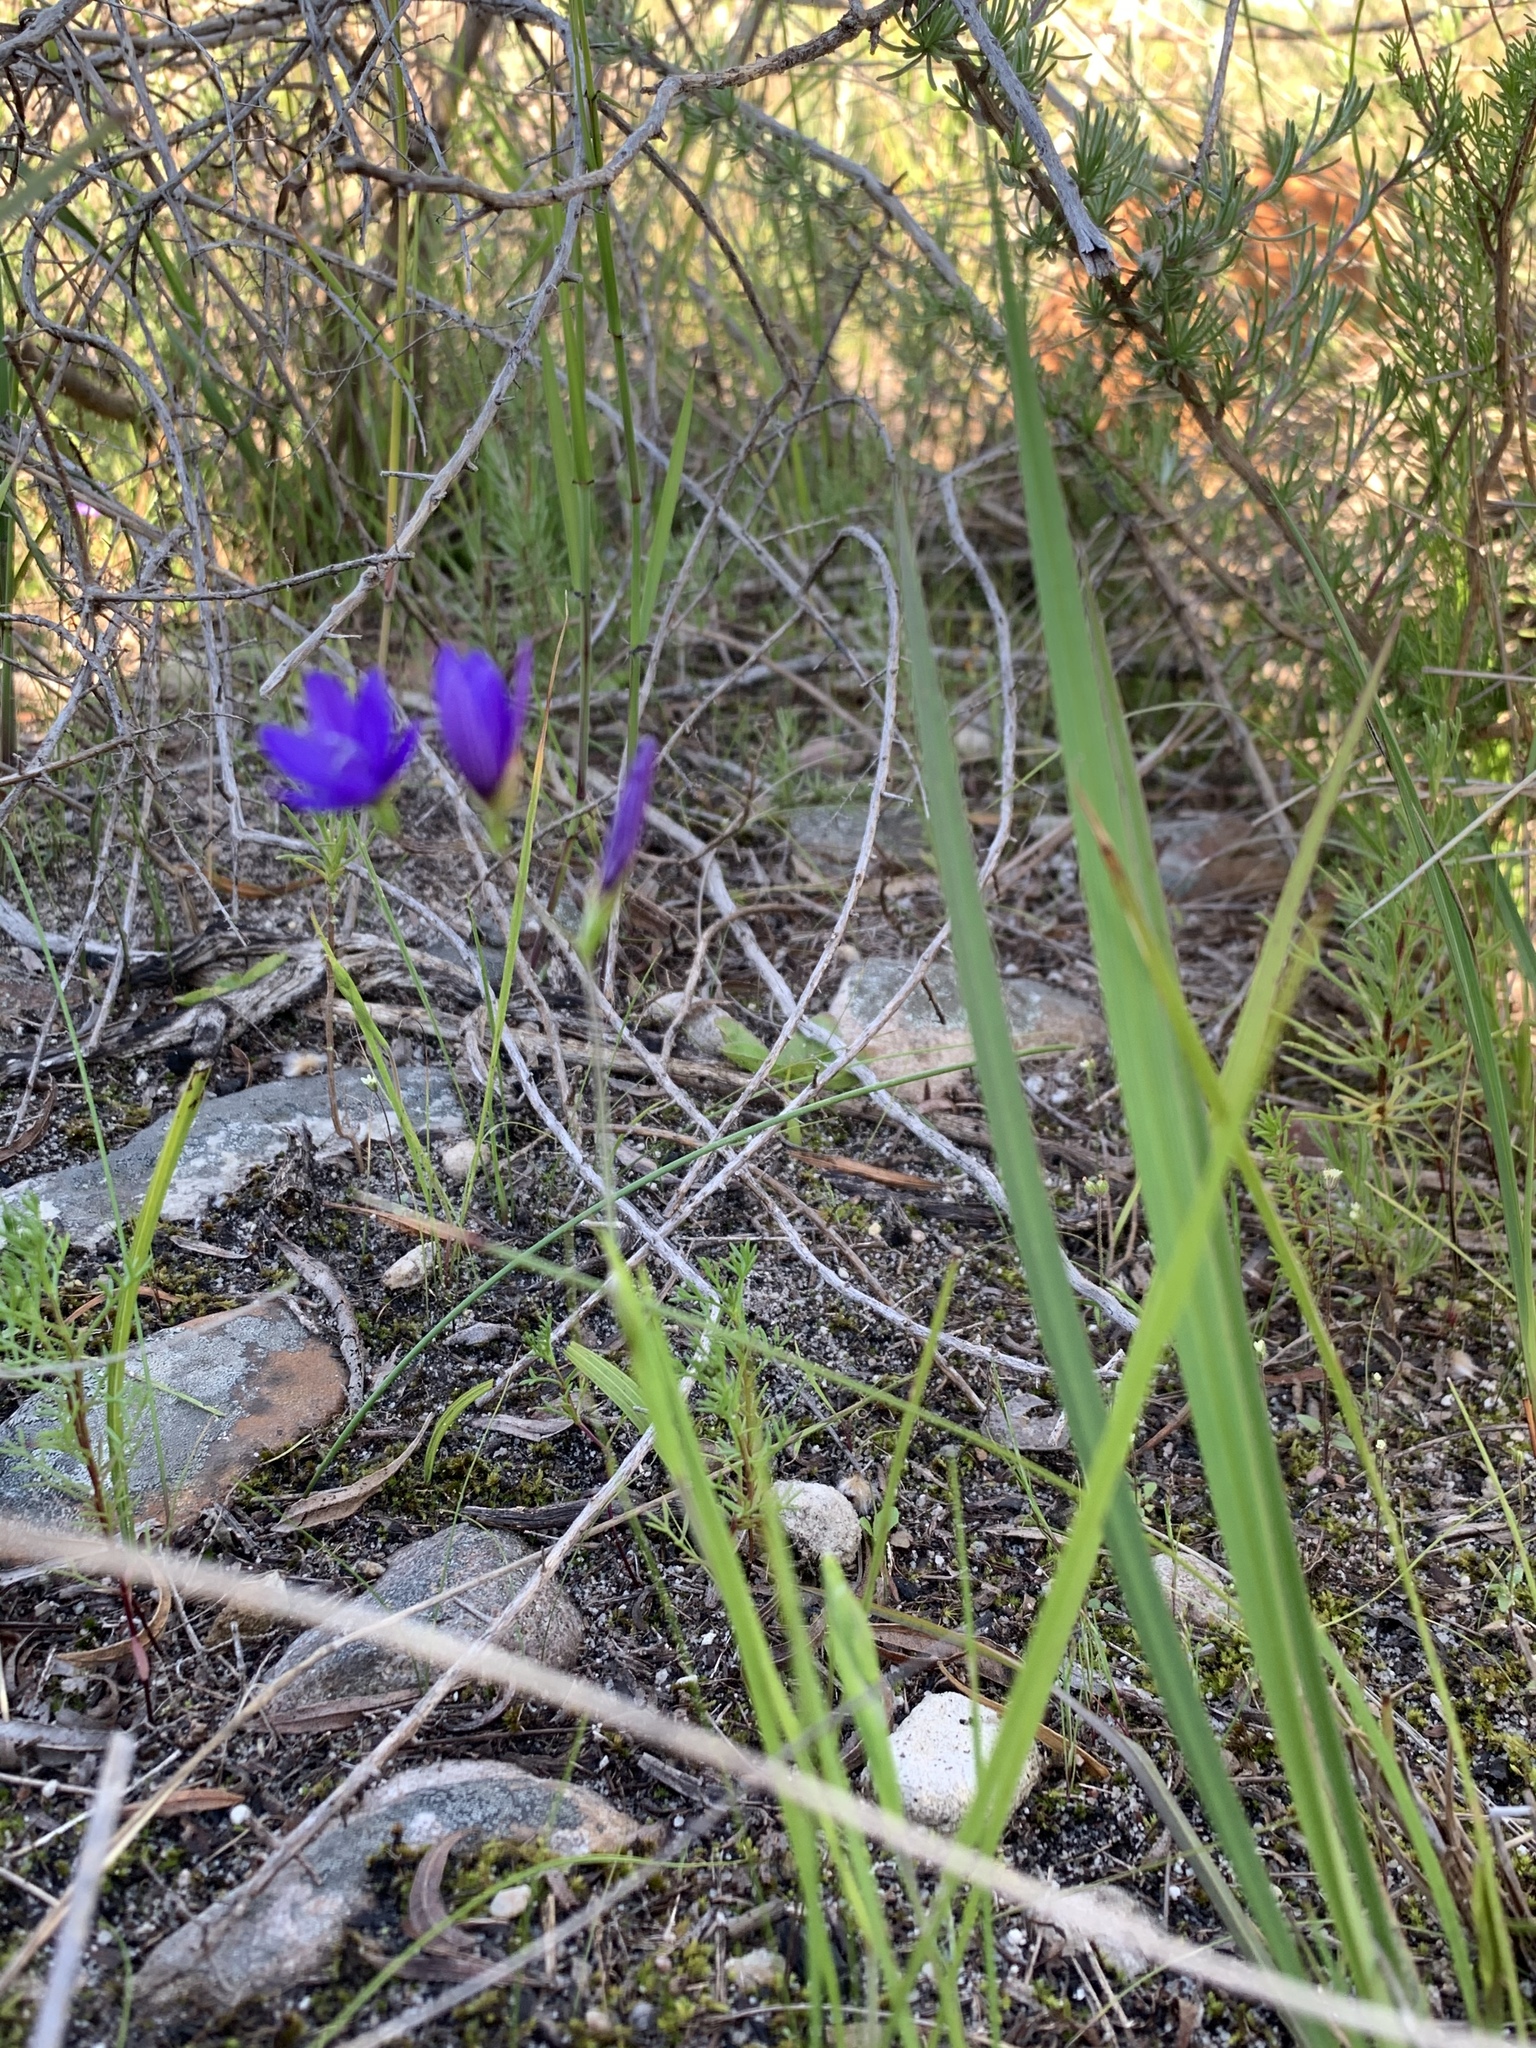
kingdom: Plantae
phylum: Tracheophyta
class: Liliopsida
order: Asparagales
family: Iridaceae
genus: Geissorhiza
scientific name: Geissorhiza aspera
